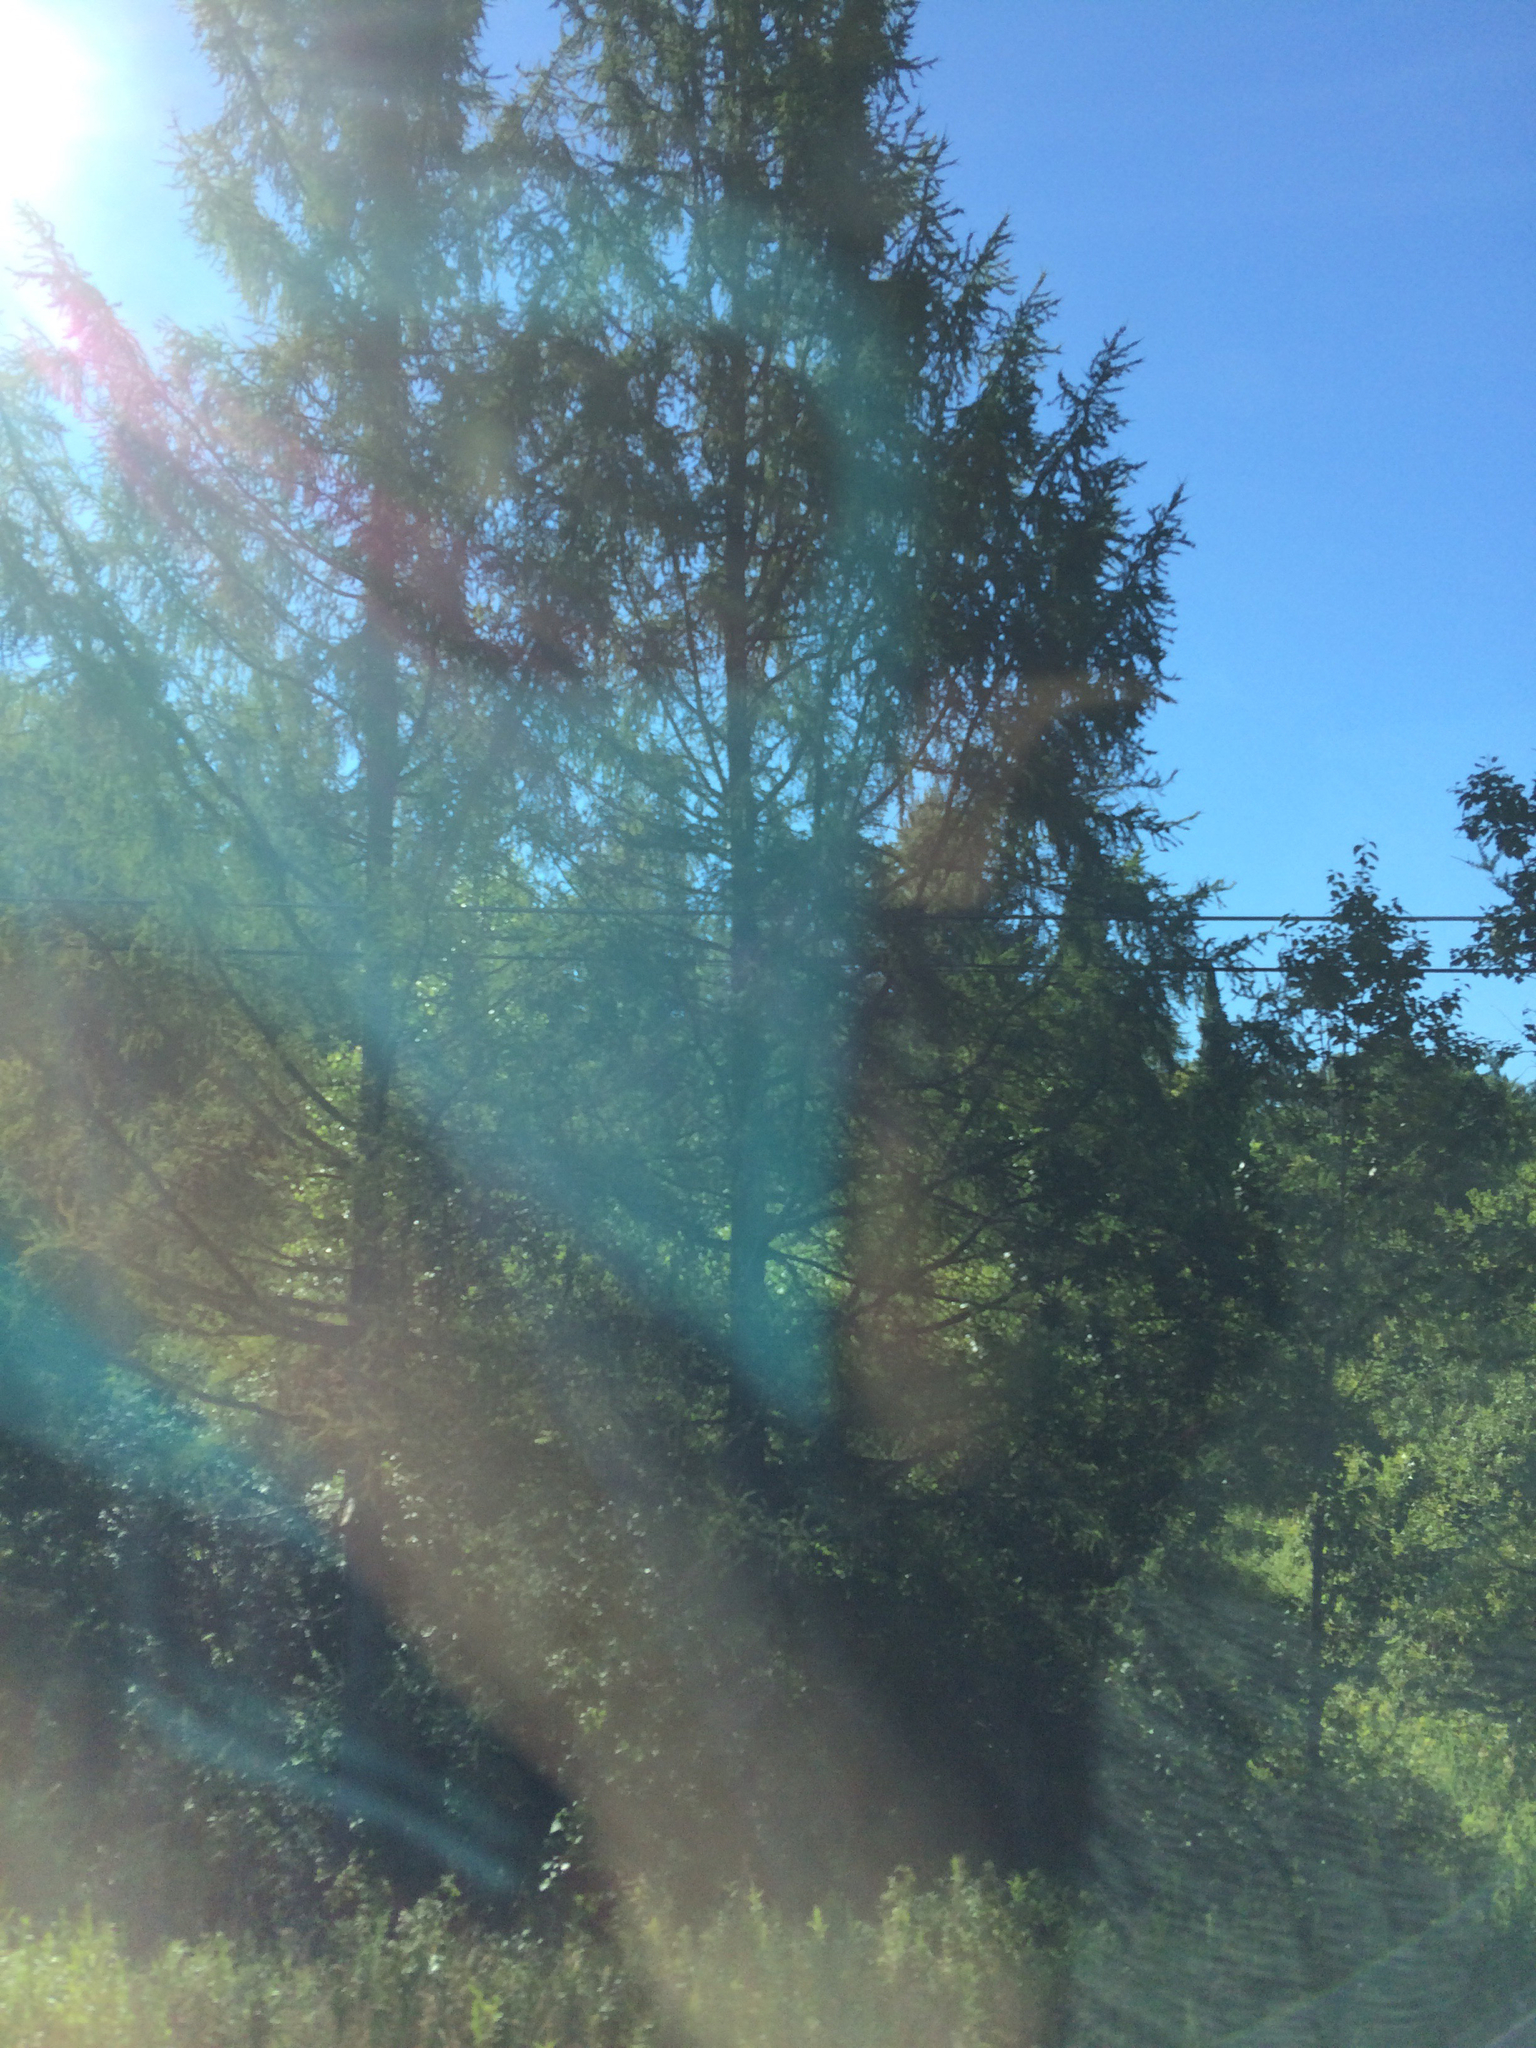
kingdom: Plantae
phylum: Tracheophyta
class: Pinopsida
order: Pinales
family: Pinaceae
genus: Larix
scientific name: Larix laricina
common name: American larch
